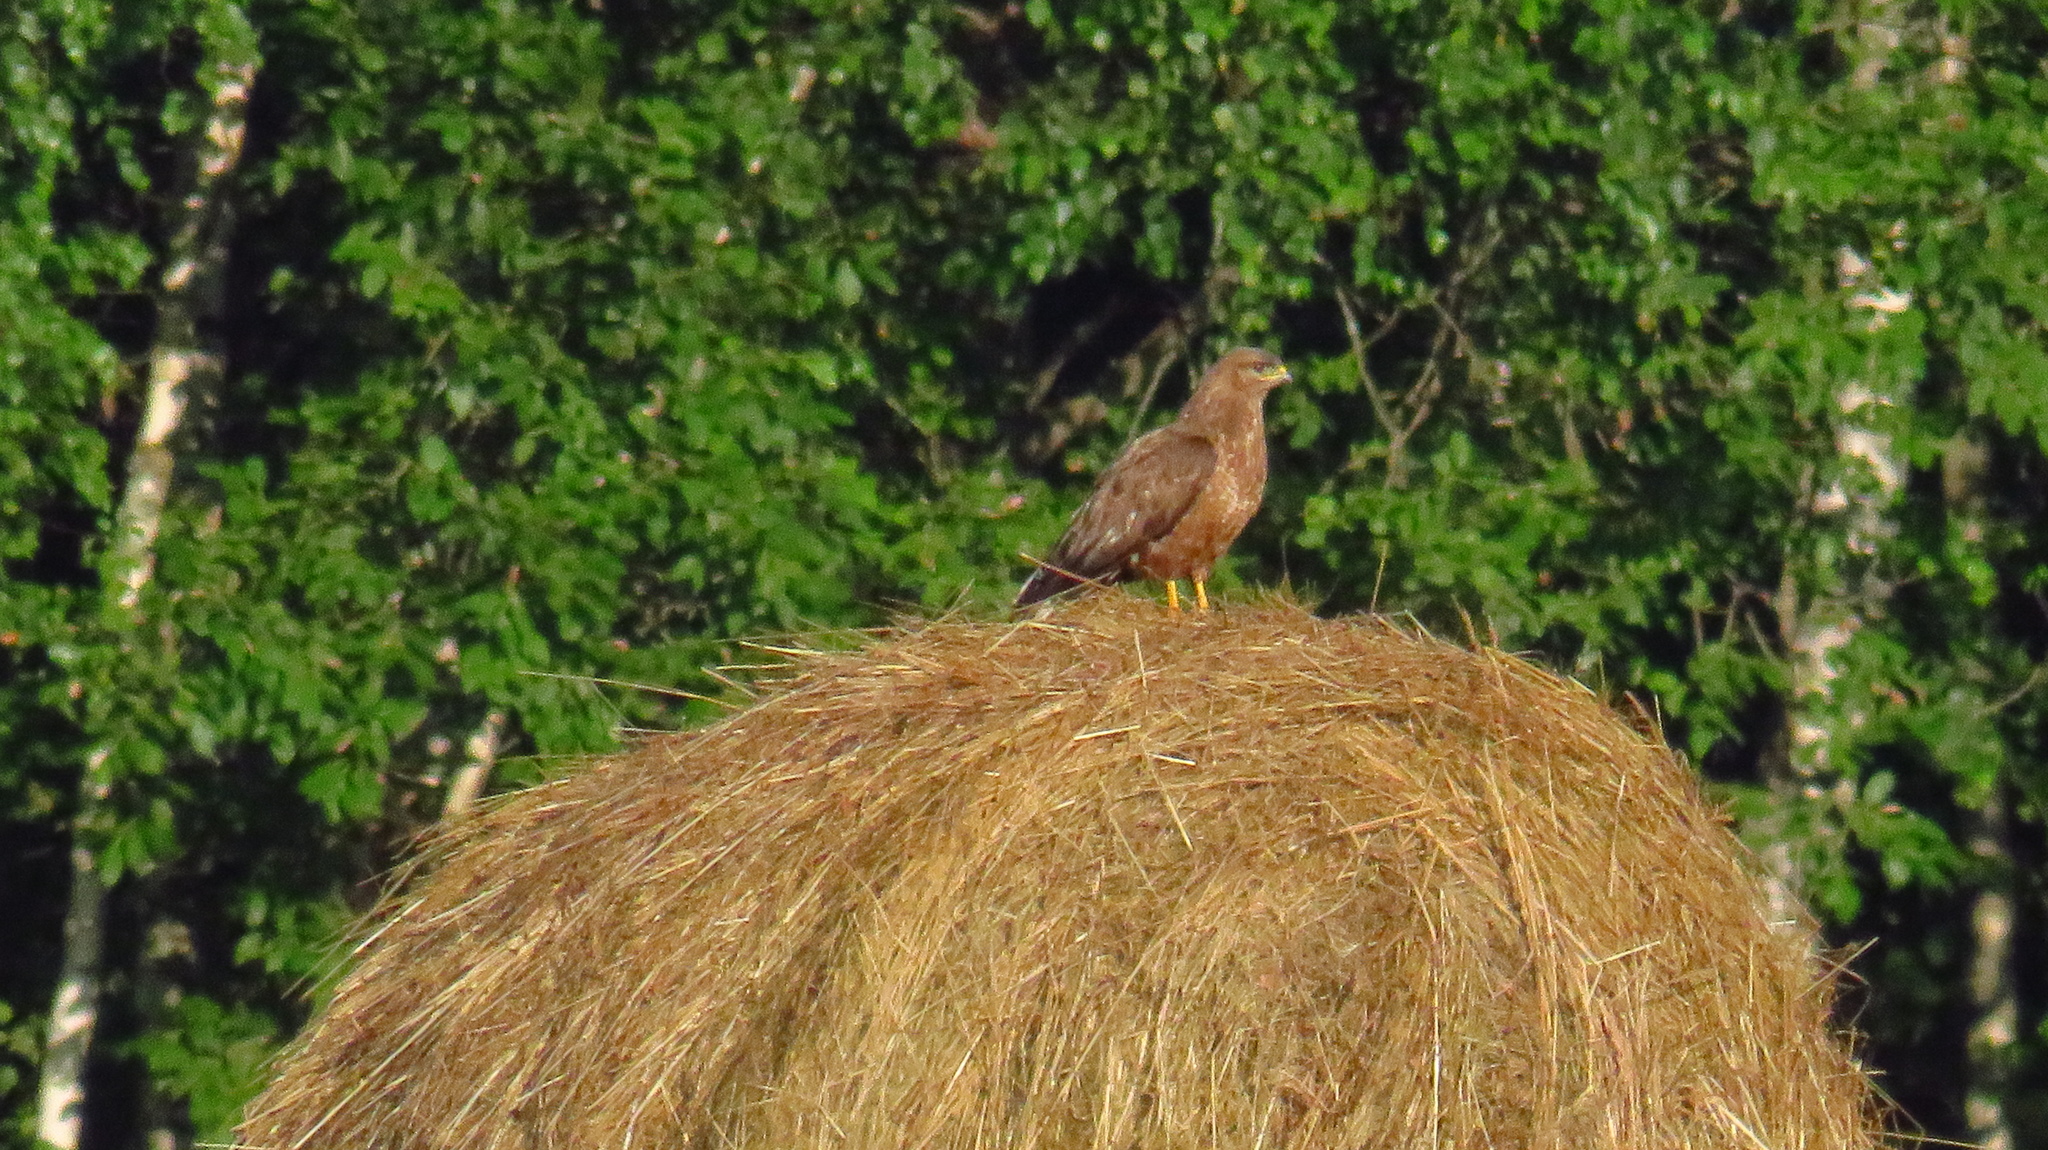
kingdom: Animalia
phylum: Chordata
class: Aves
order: Accipitriformes
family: Accipitridae
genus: Buteo
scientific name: Buteo buteo
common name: Common buzzard
